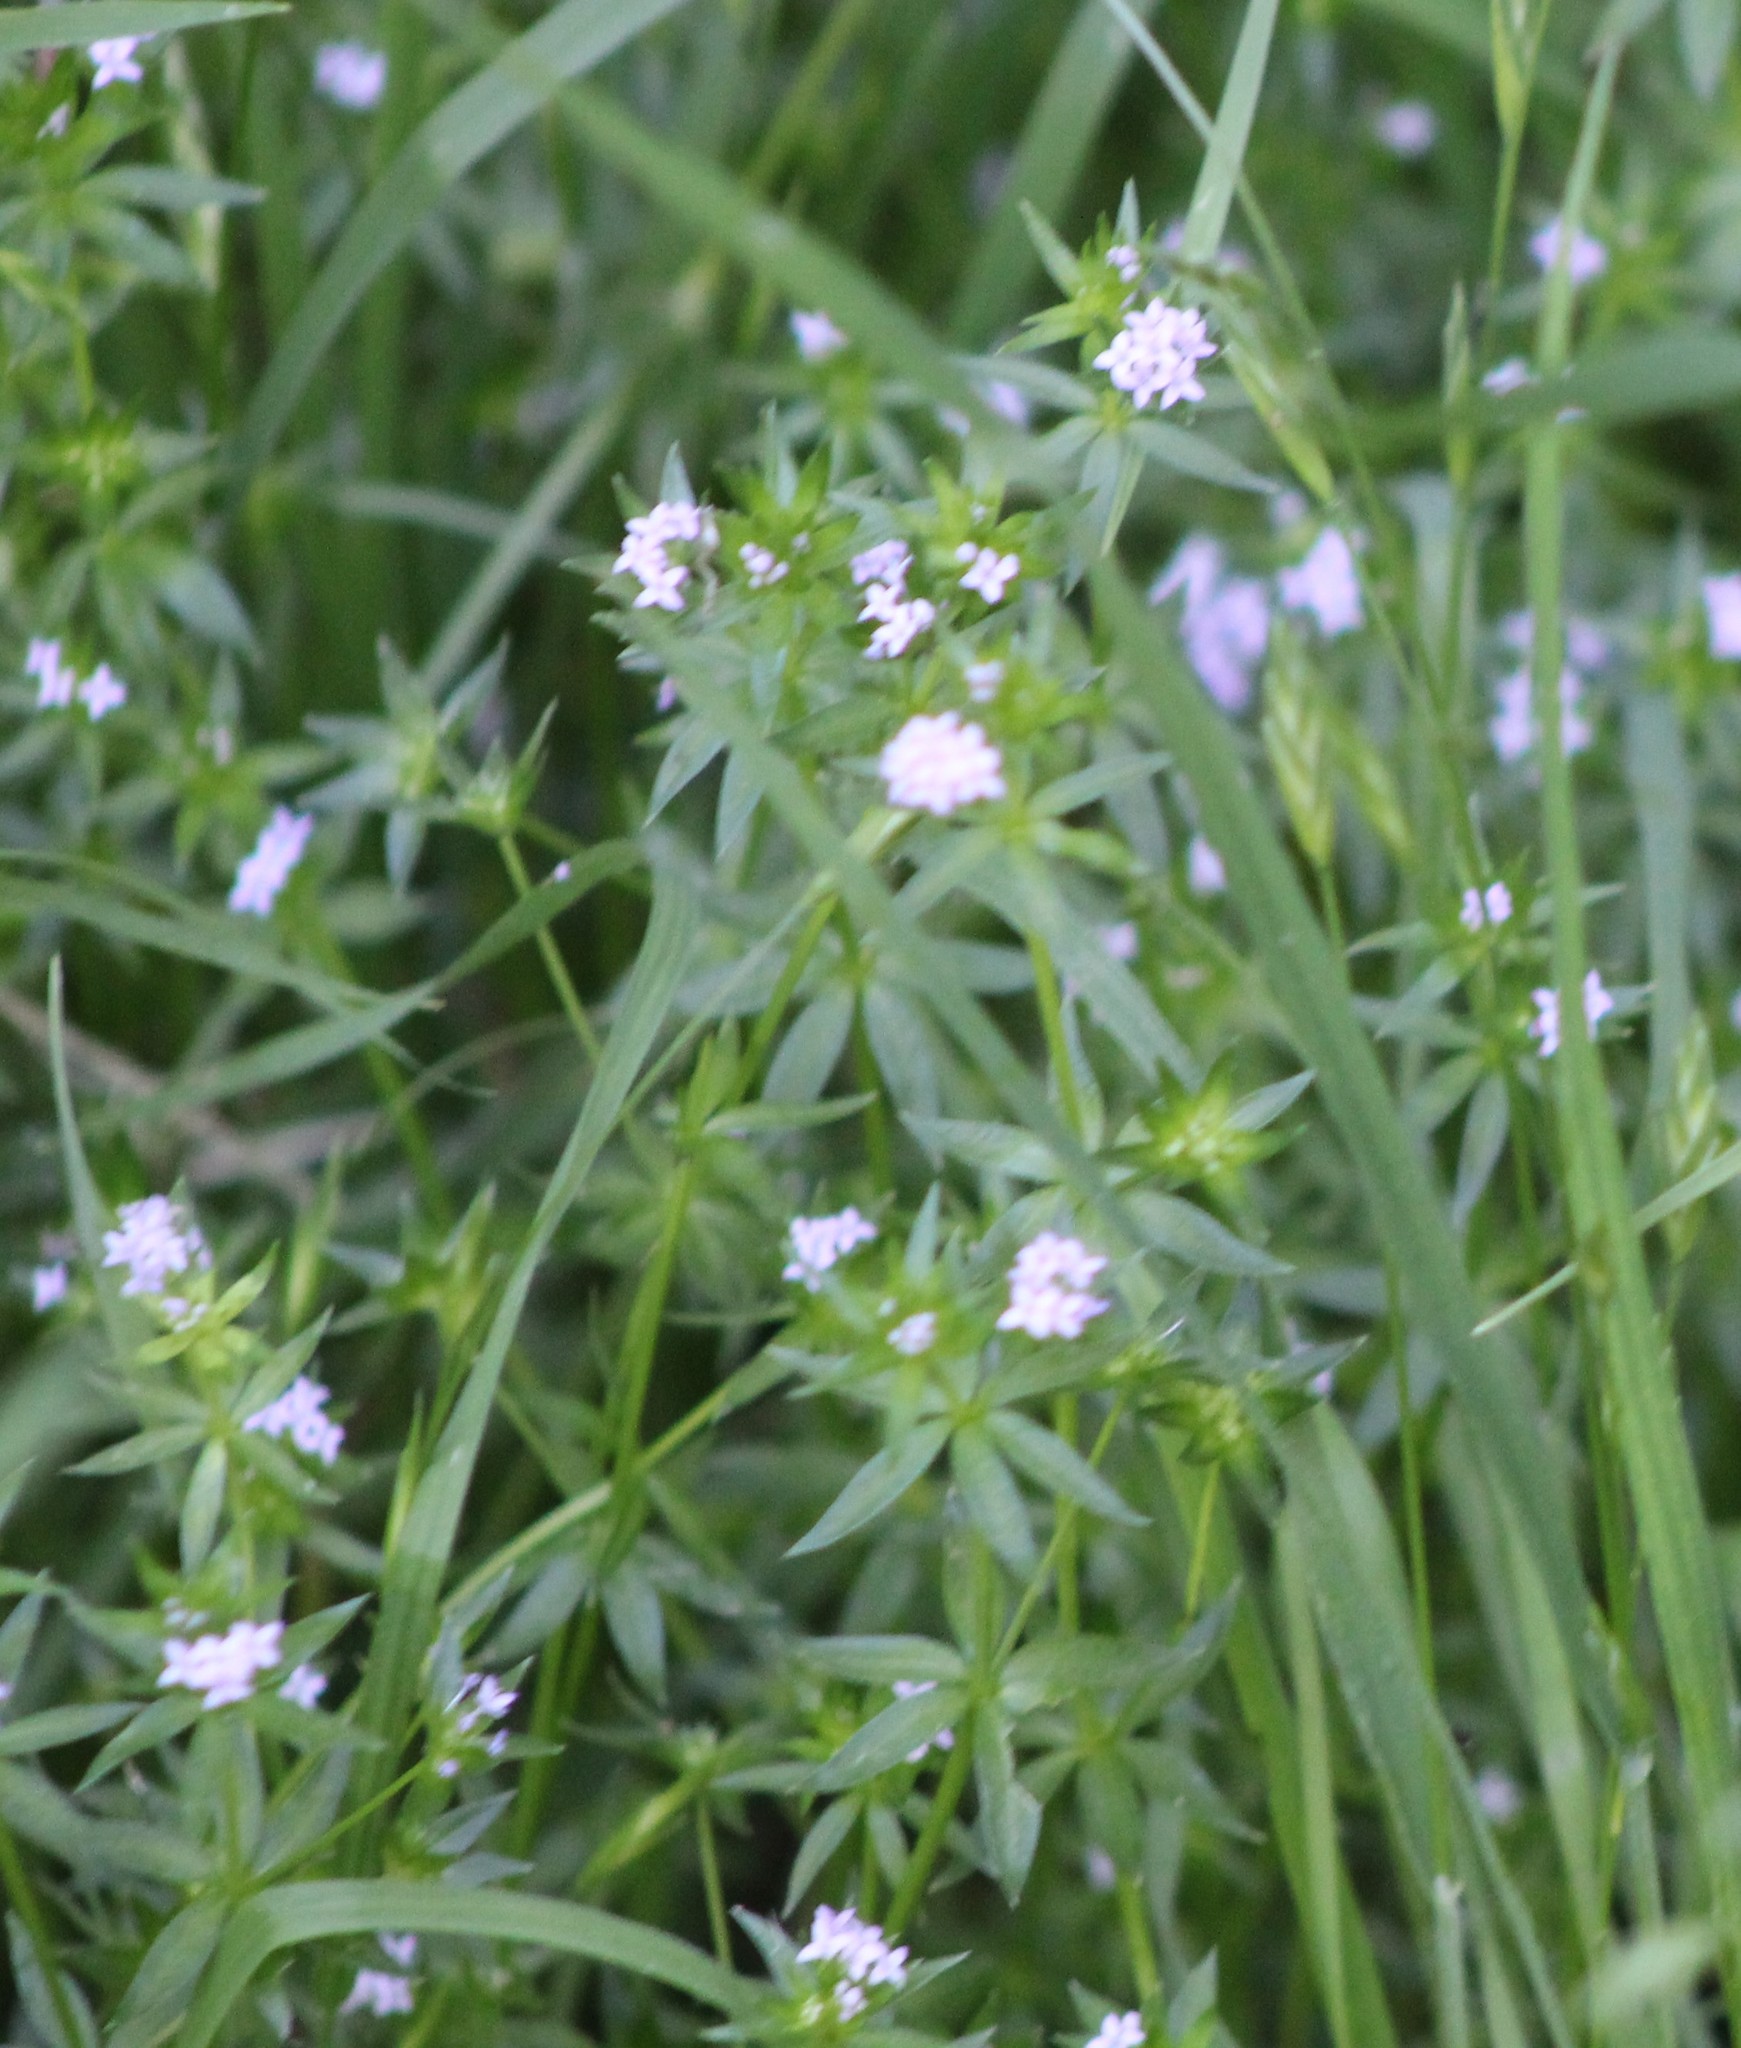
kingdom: Plantae
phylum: Tracheophyta
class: Magnoliopsida
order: Gentianales
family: Rubiaceae
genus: Sherardia
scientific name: Sherardia arvensis
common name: Field madder
